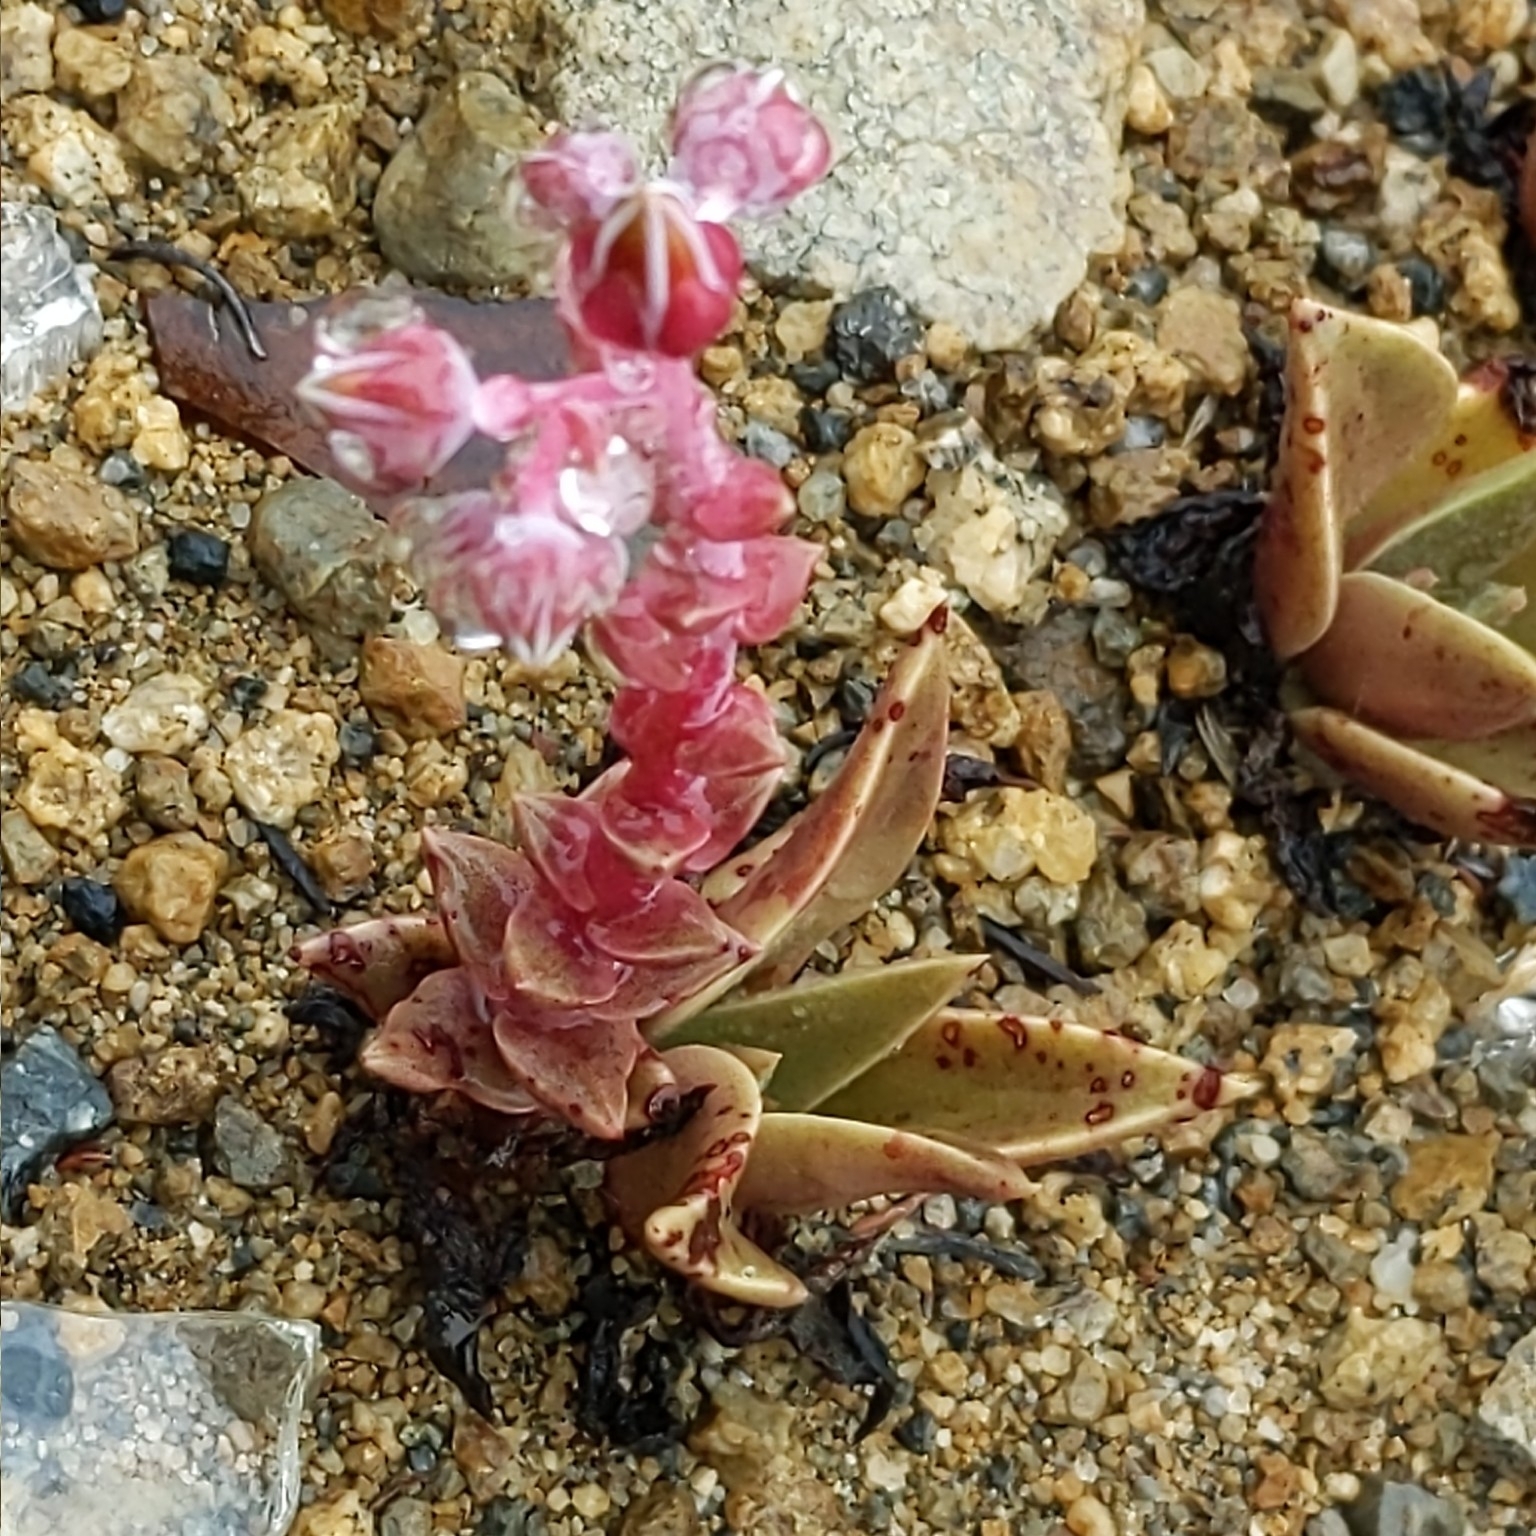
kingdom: Plantae
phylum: Tracheophyta
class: Magnoliopsida
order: Saxifragales
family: Crassulaceae
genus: Dudleya
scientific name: Dudleya lanceolata
